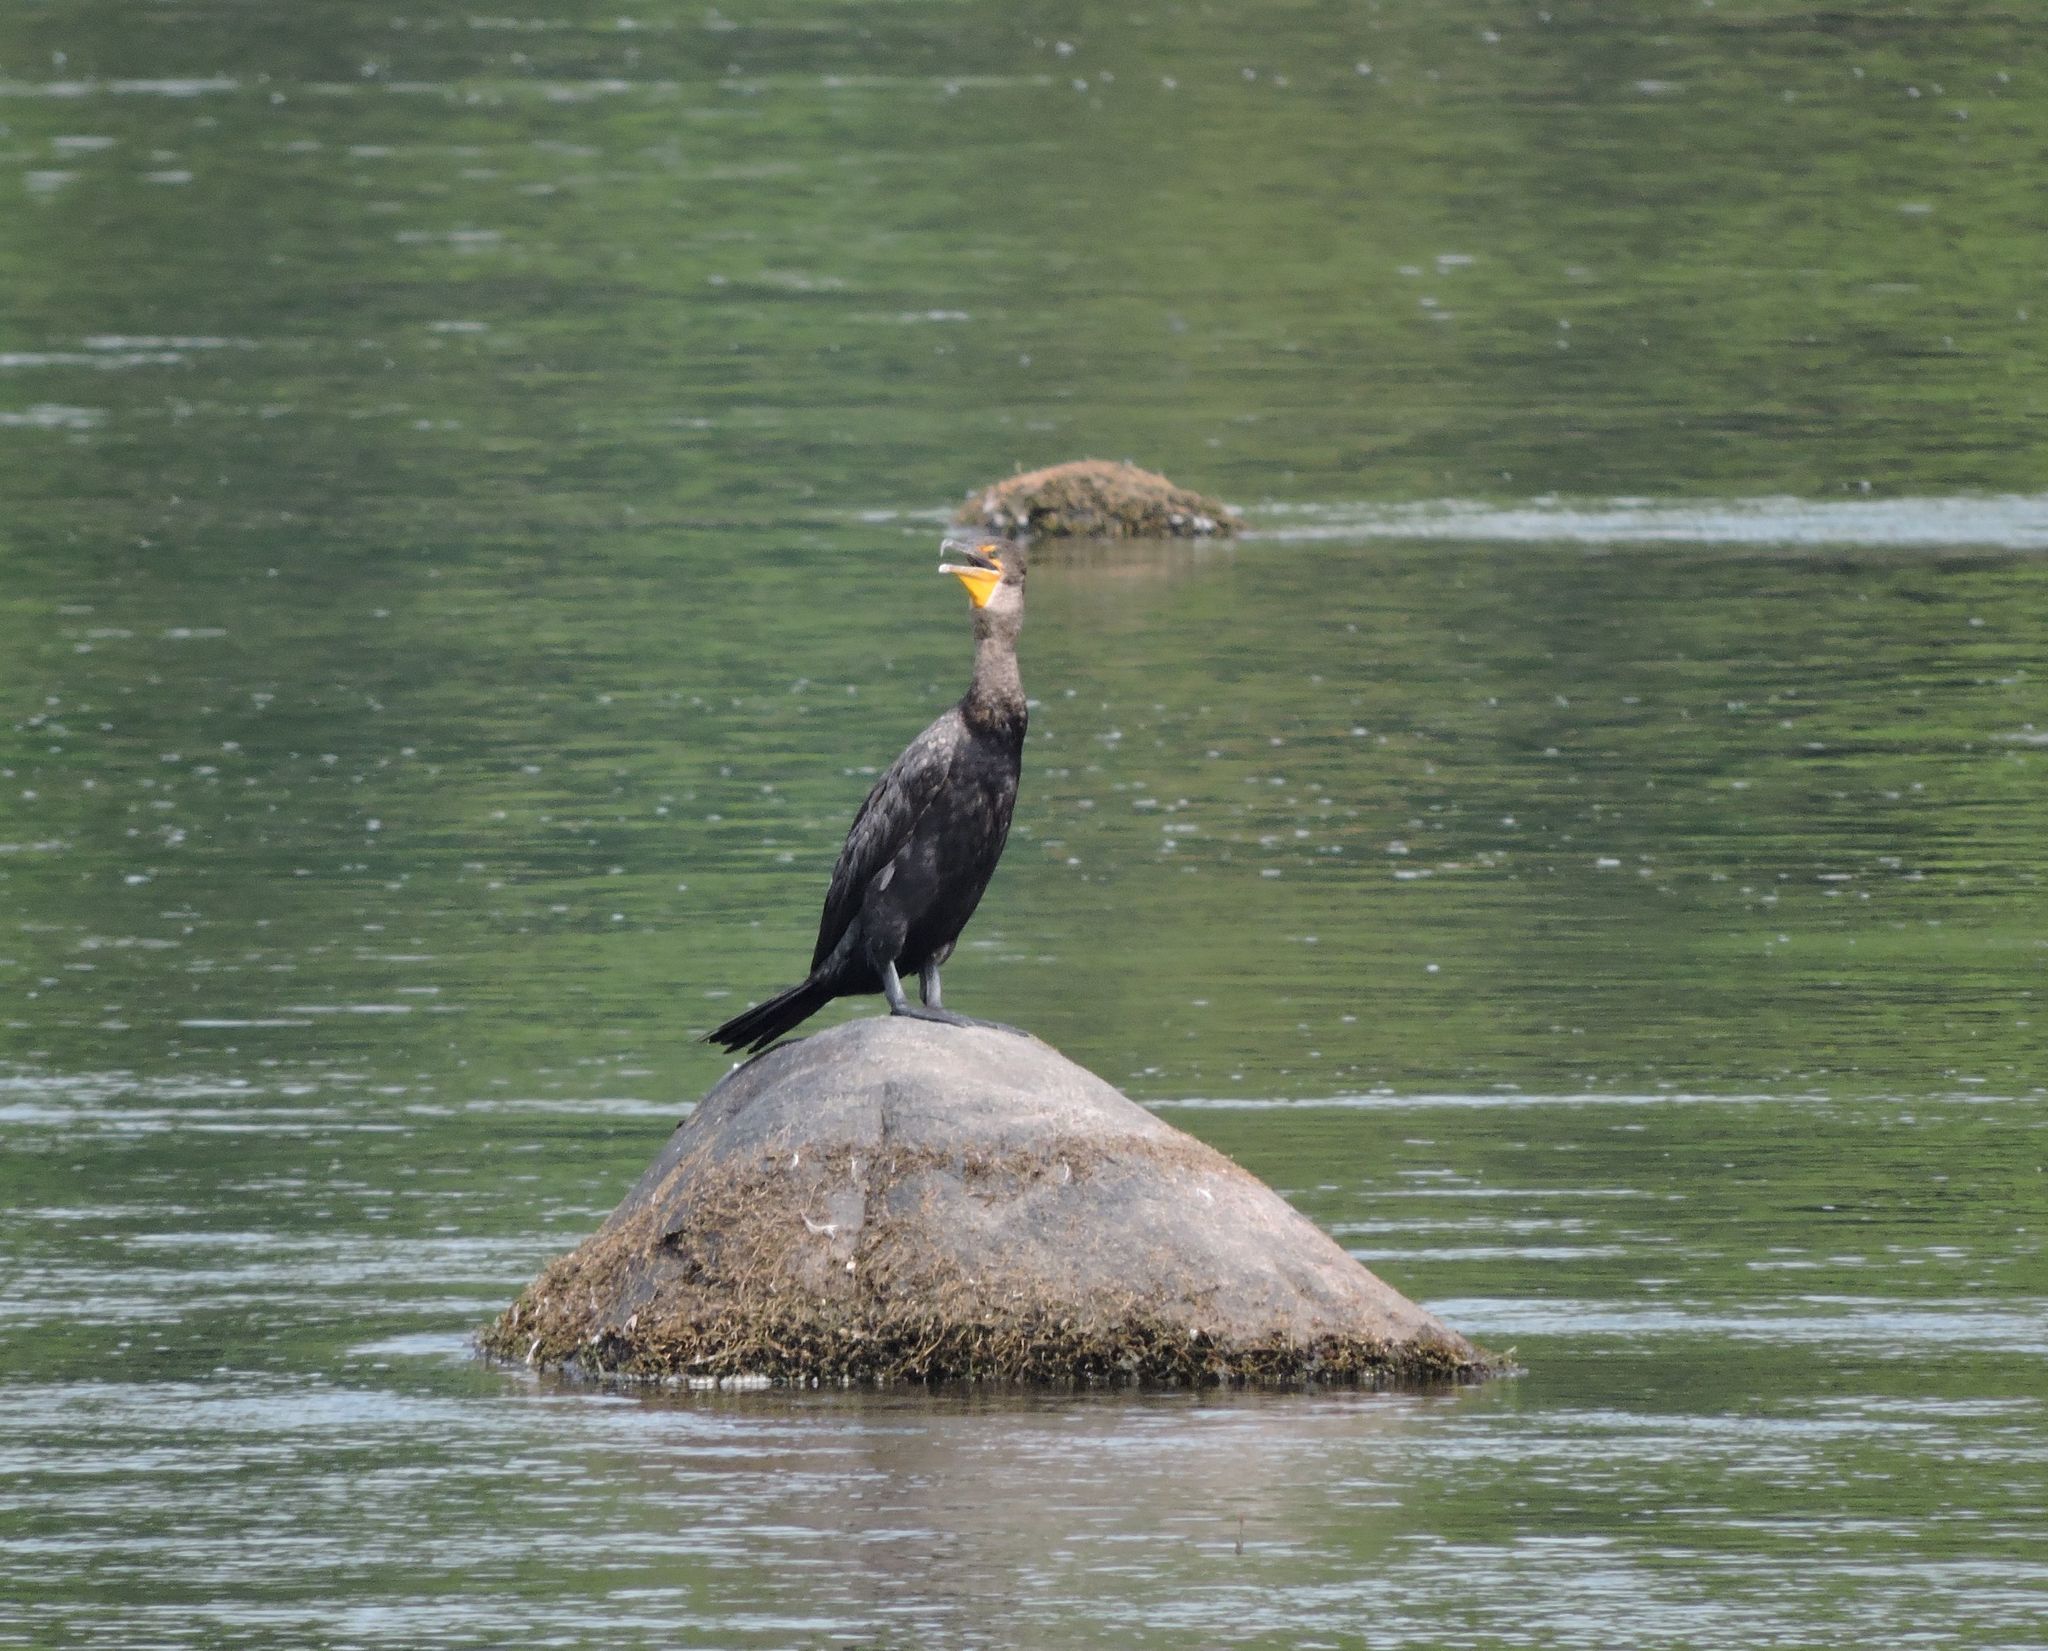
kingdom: Animalia
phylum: Chordata
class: Aves
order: Suliformes
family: Phalacrocoracidae
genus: Phalacrocorax
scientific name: Phalacrocorax auritus
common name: Double-crested cormorant
